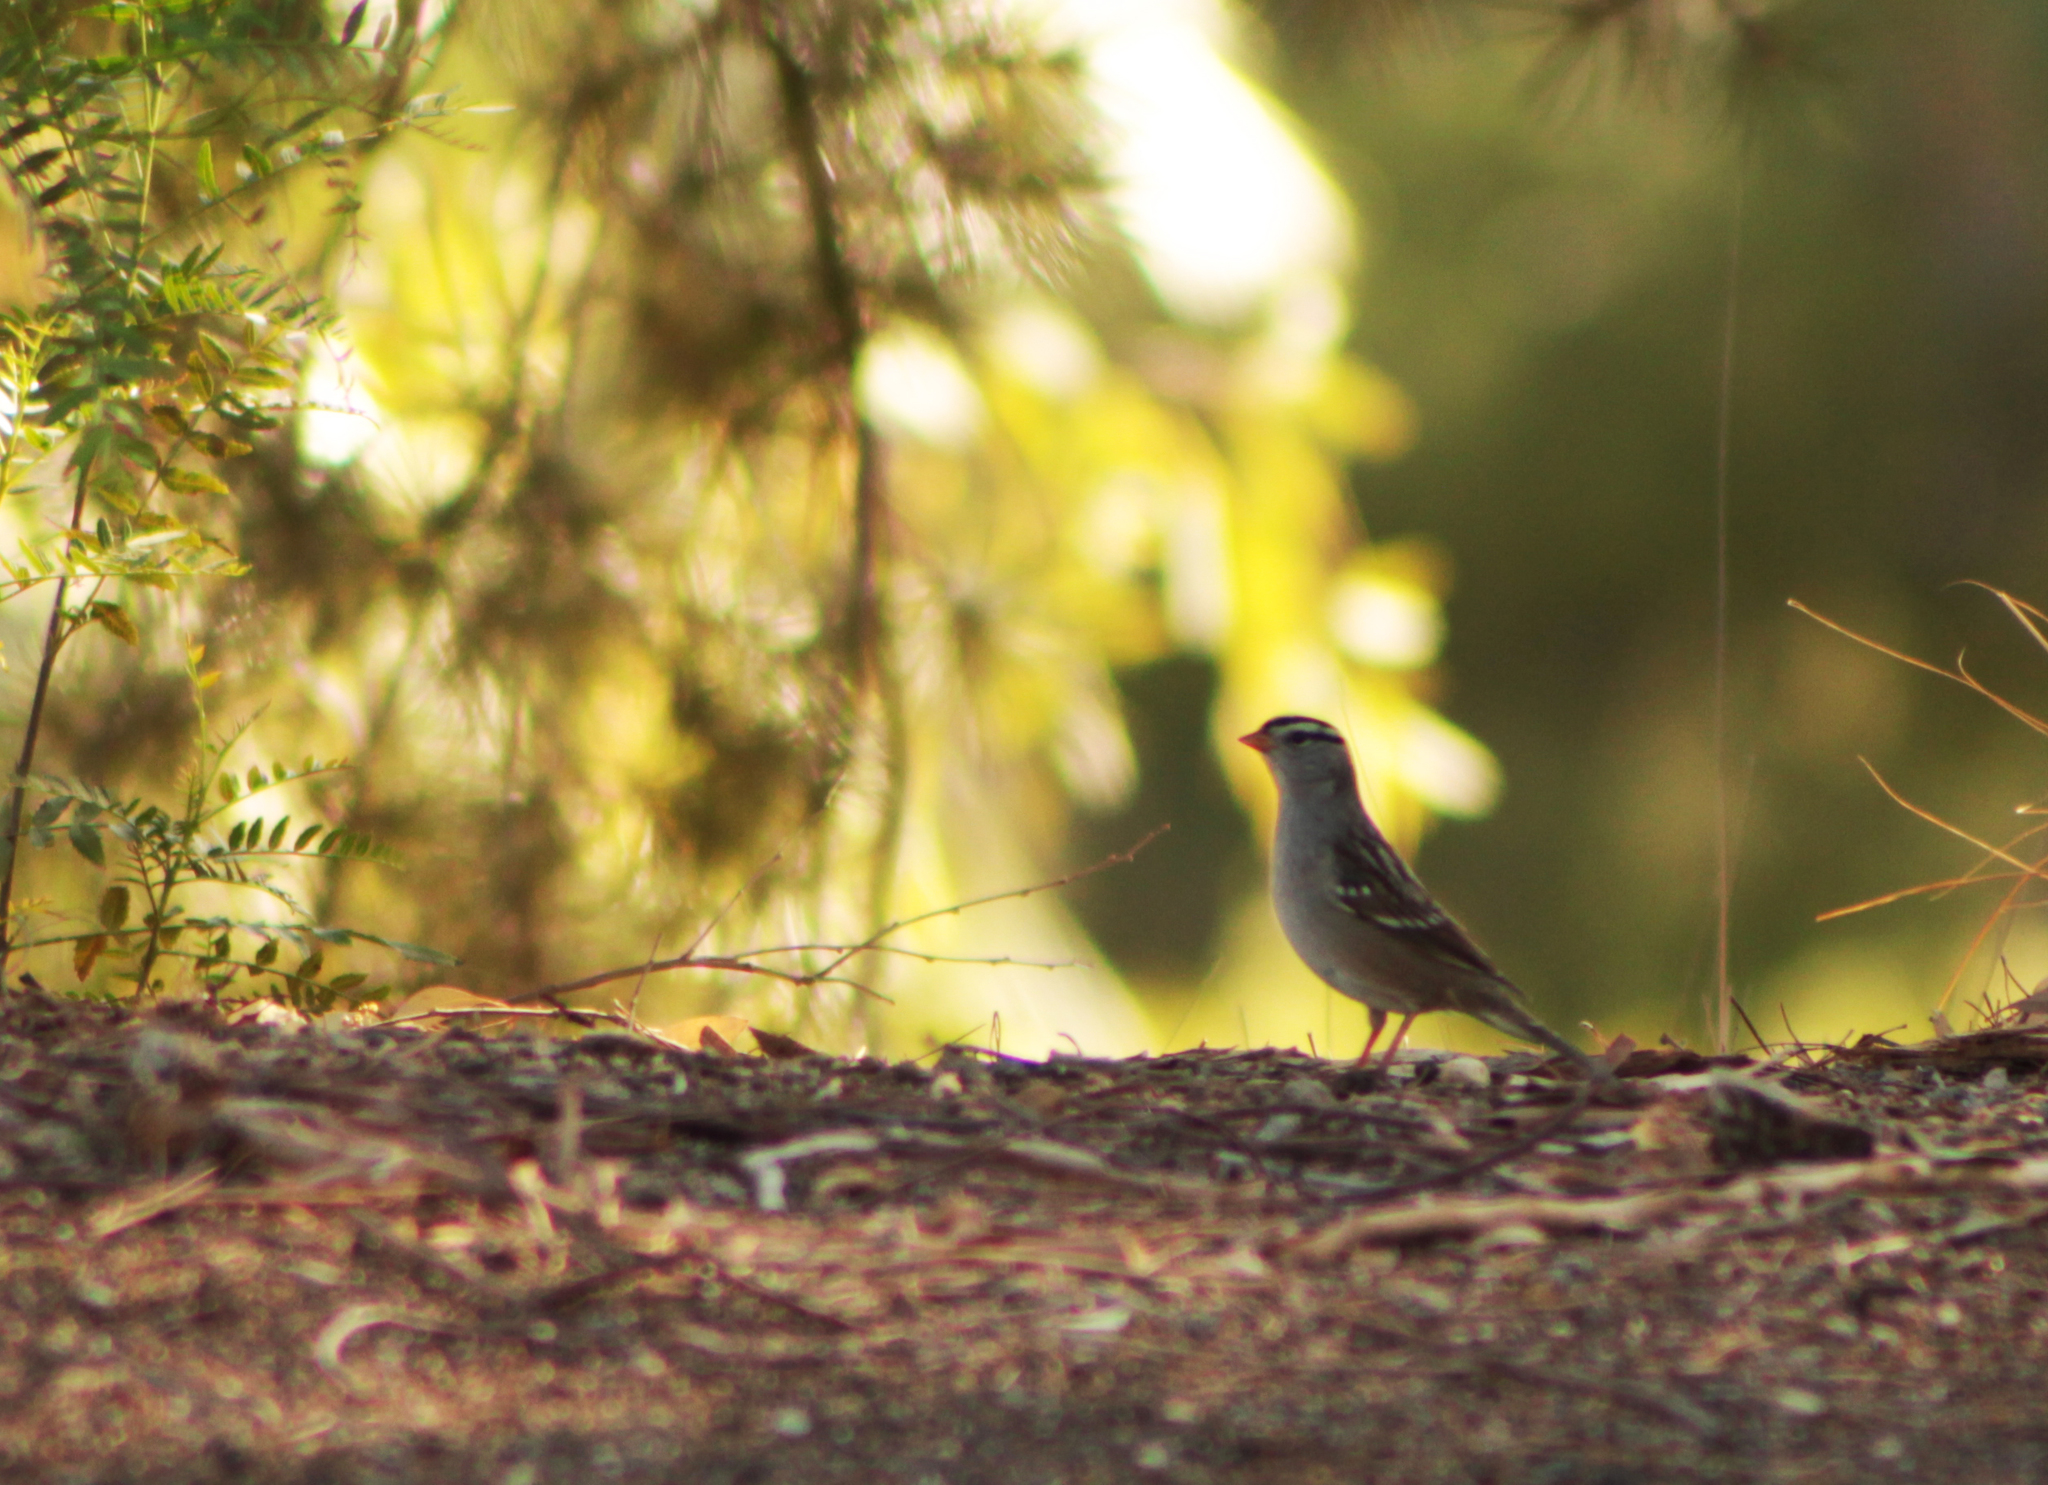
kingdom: Animalia
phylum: Chordata
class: Aves
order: Passeriformes
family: Passerellidae
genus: Zonotrichia
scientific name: Zonotrichia leucophrys
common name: White-crowned sparrow
